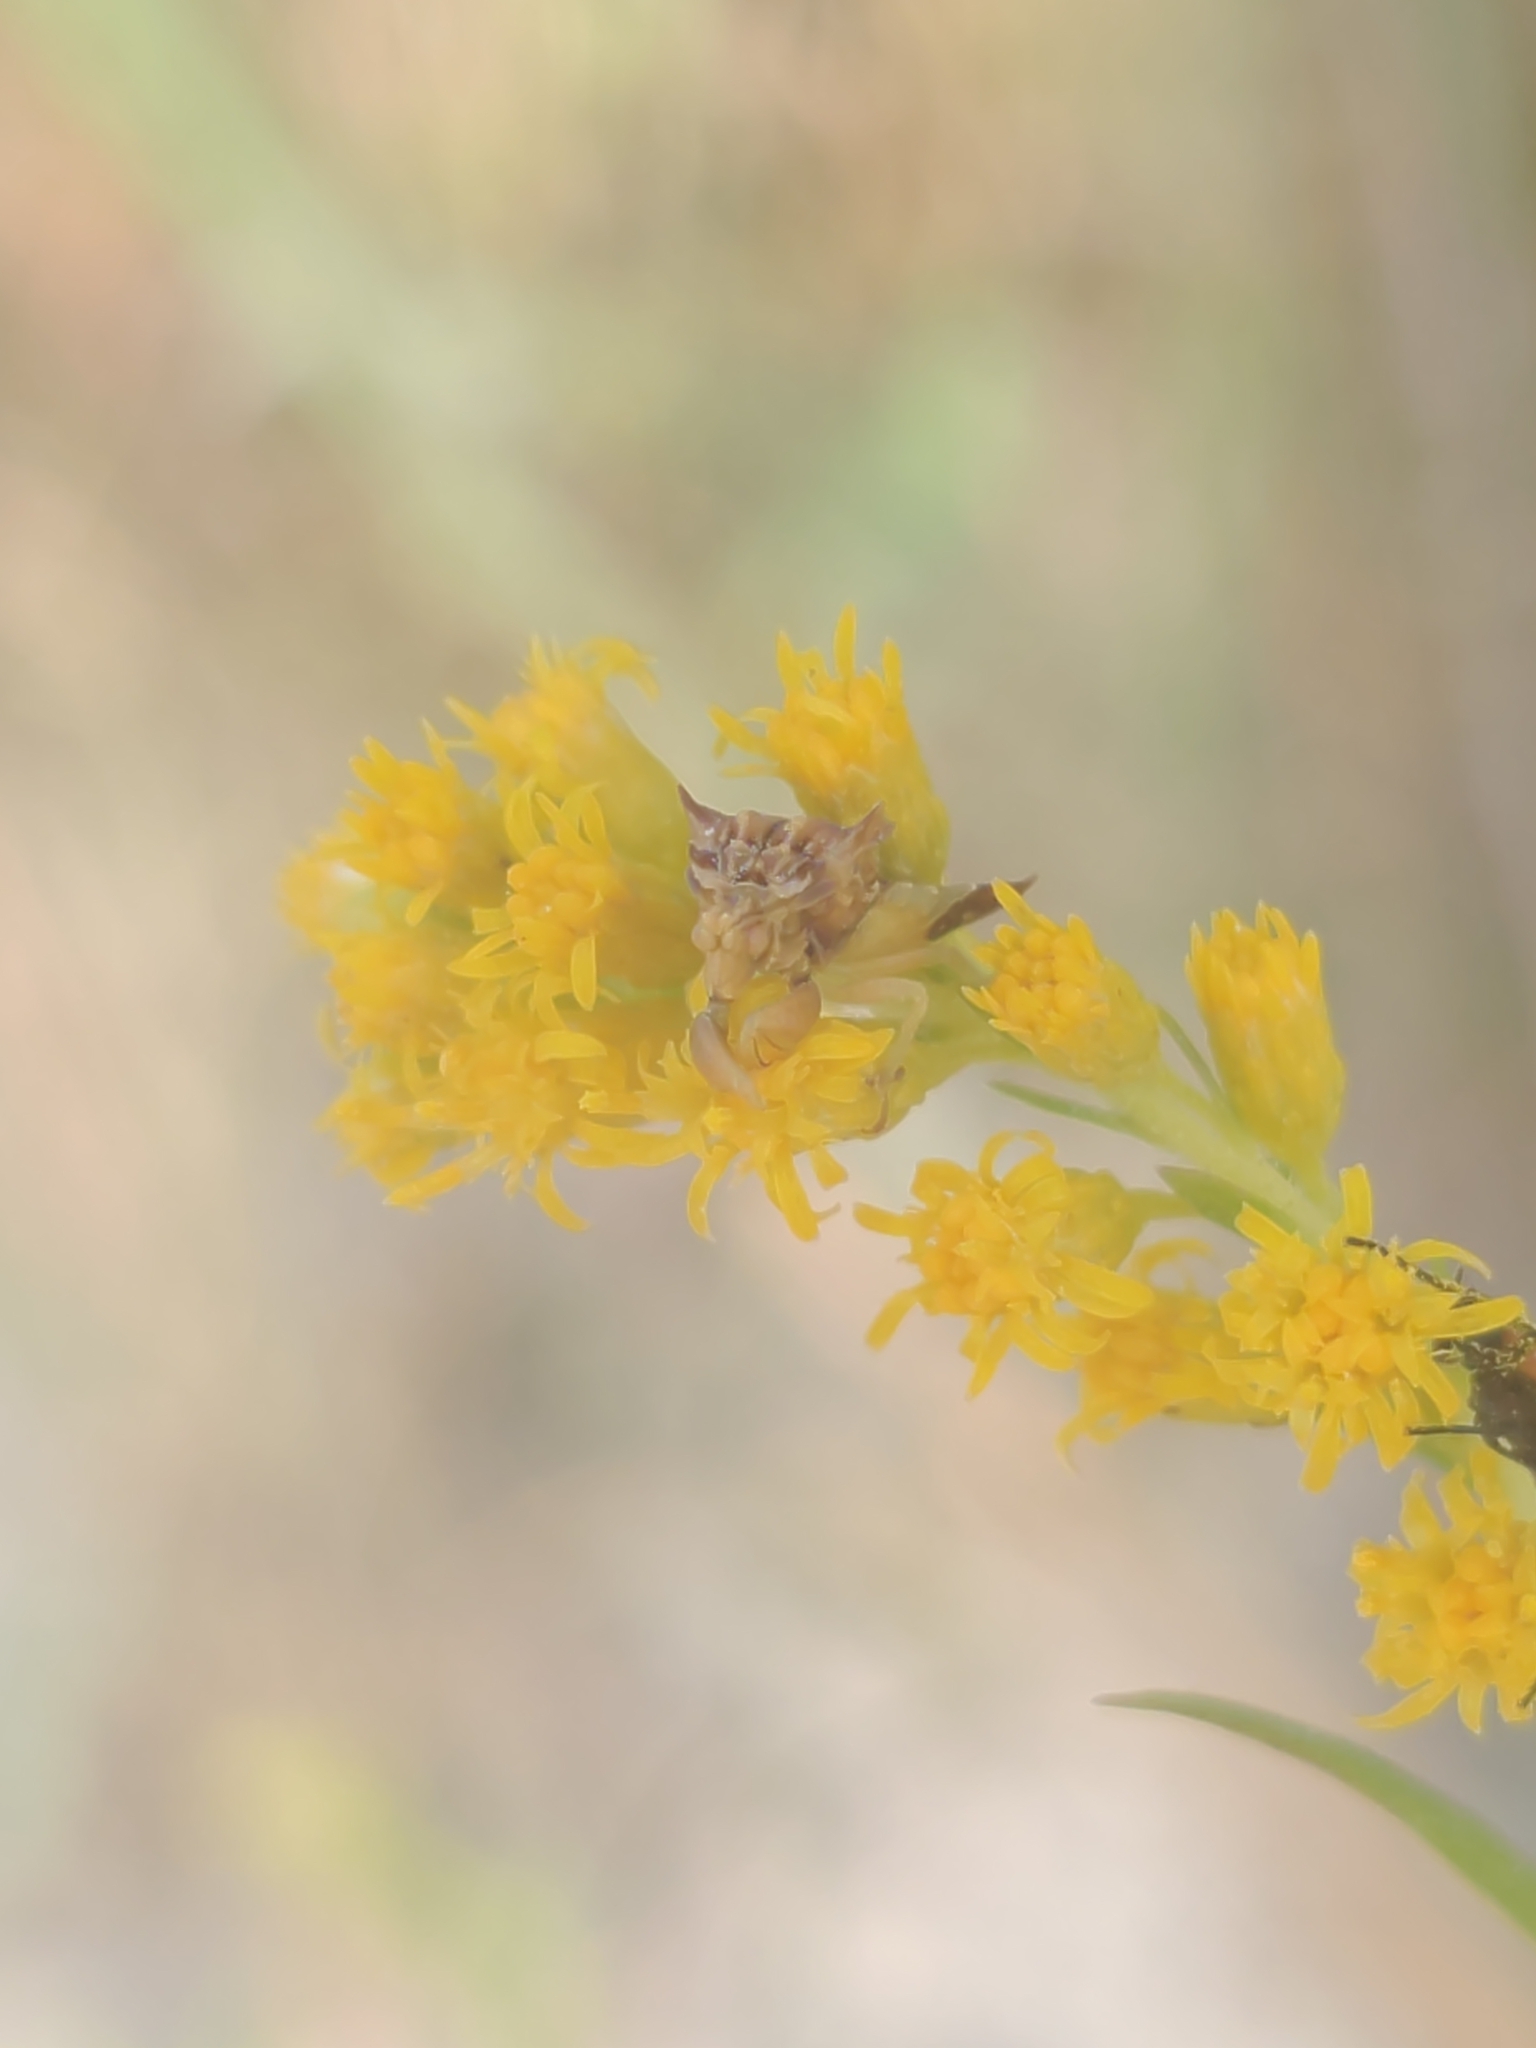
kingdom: Animalia
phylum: Arthropoda
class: Insecta
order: Hemiptera
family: Reduviidae
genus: Phymata
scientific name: Phymata fasciata
